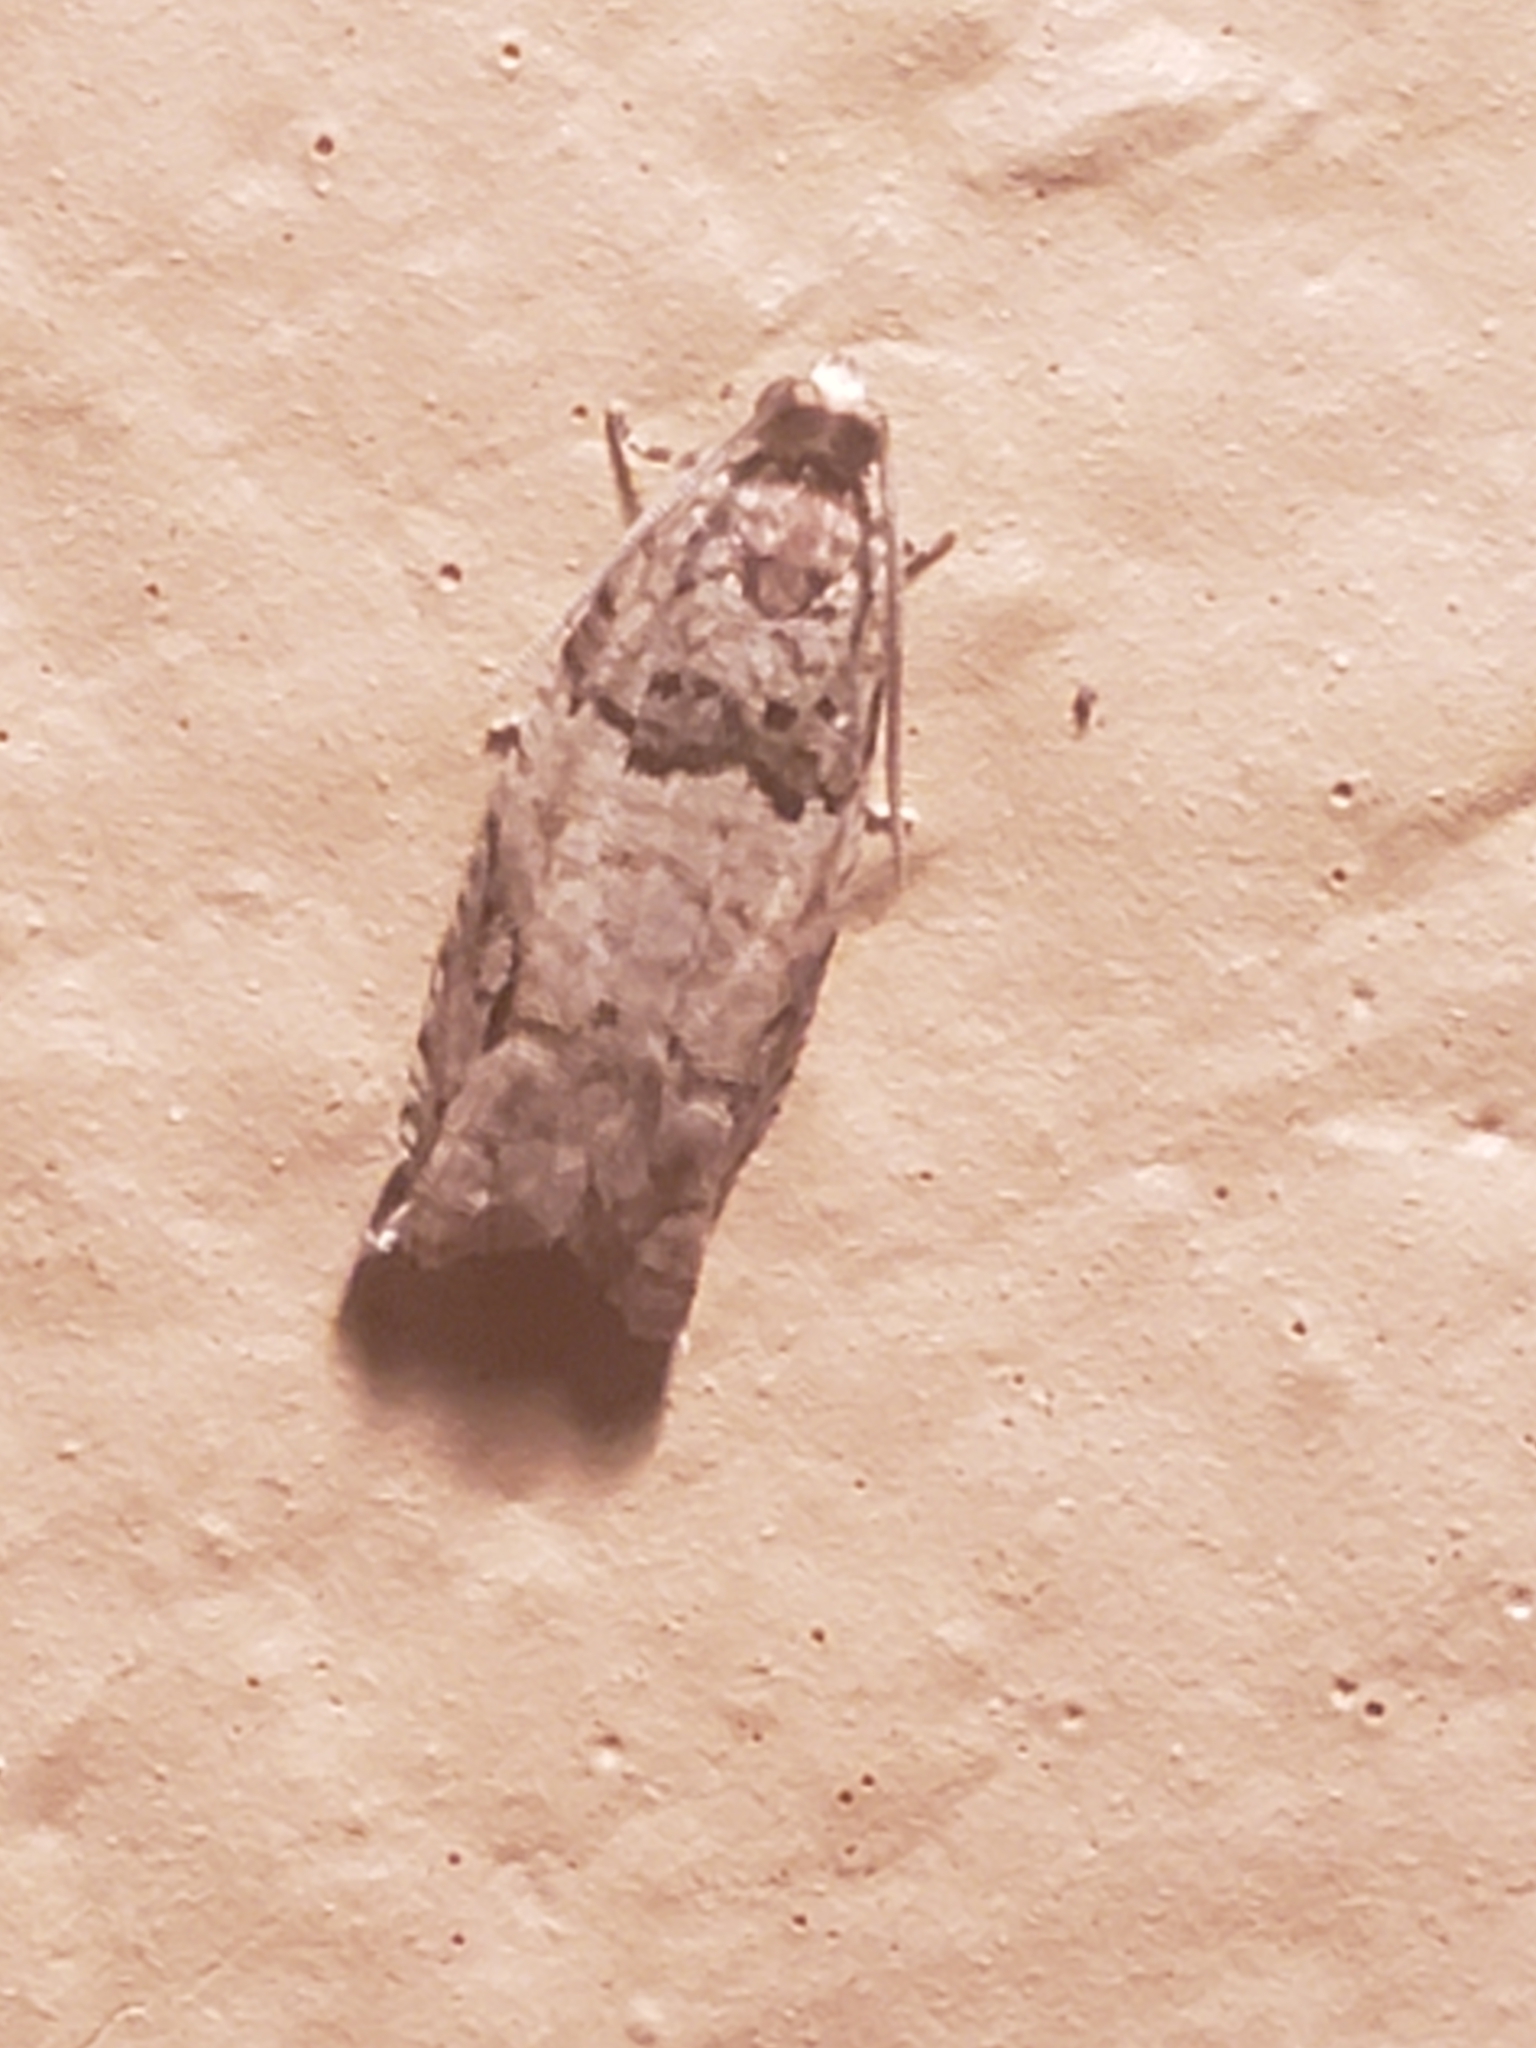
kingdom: Animalia
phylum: Arthropoda
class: Insecta
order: Lepidoptera
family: Tortricidae
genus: Rhopobota
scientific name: Rhopobota dietziana
